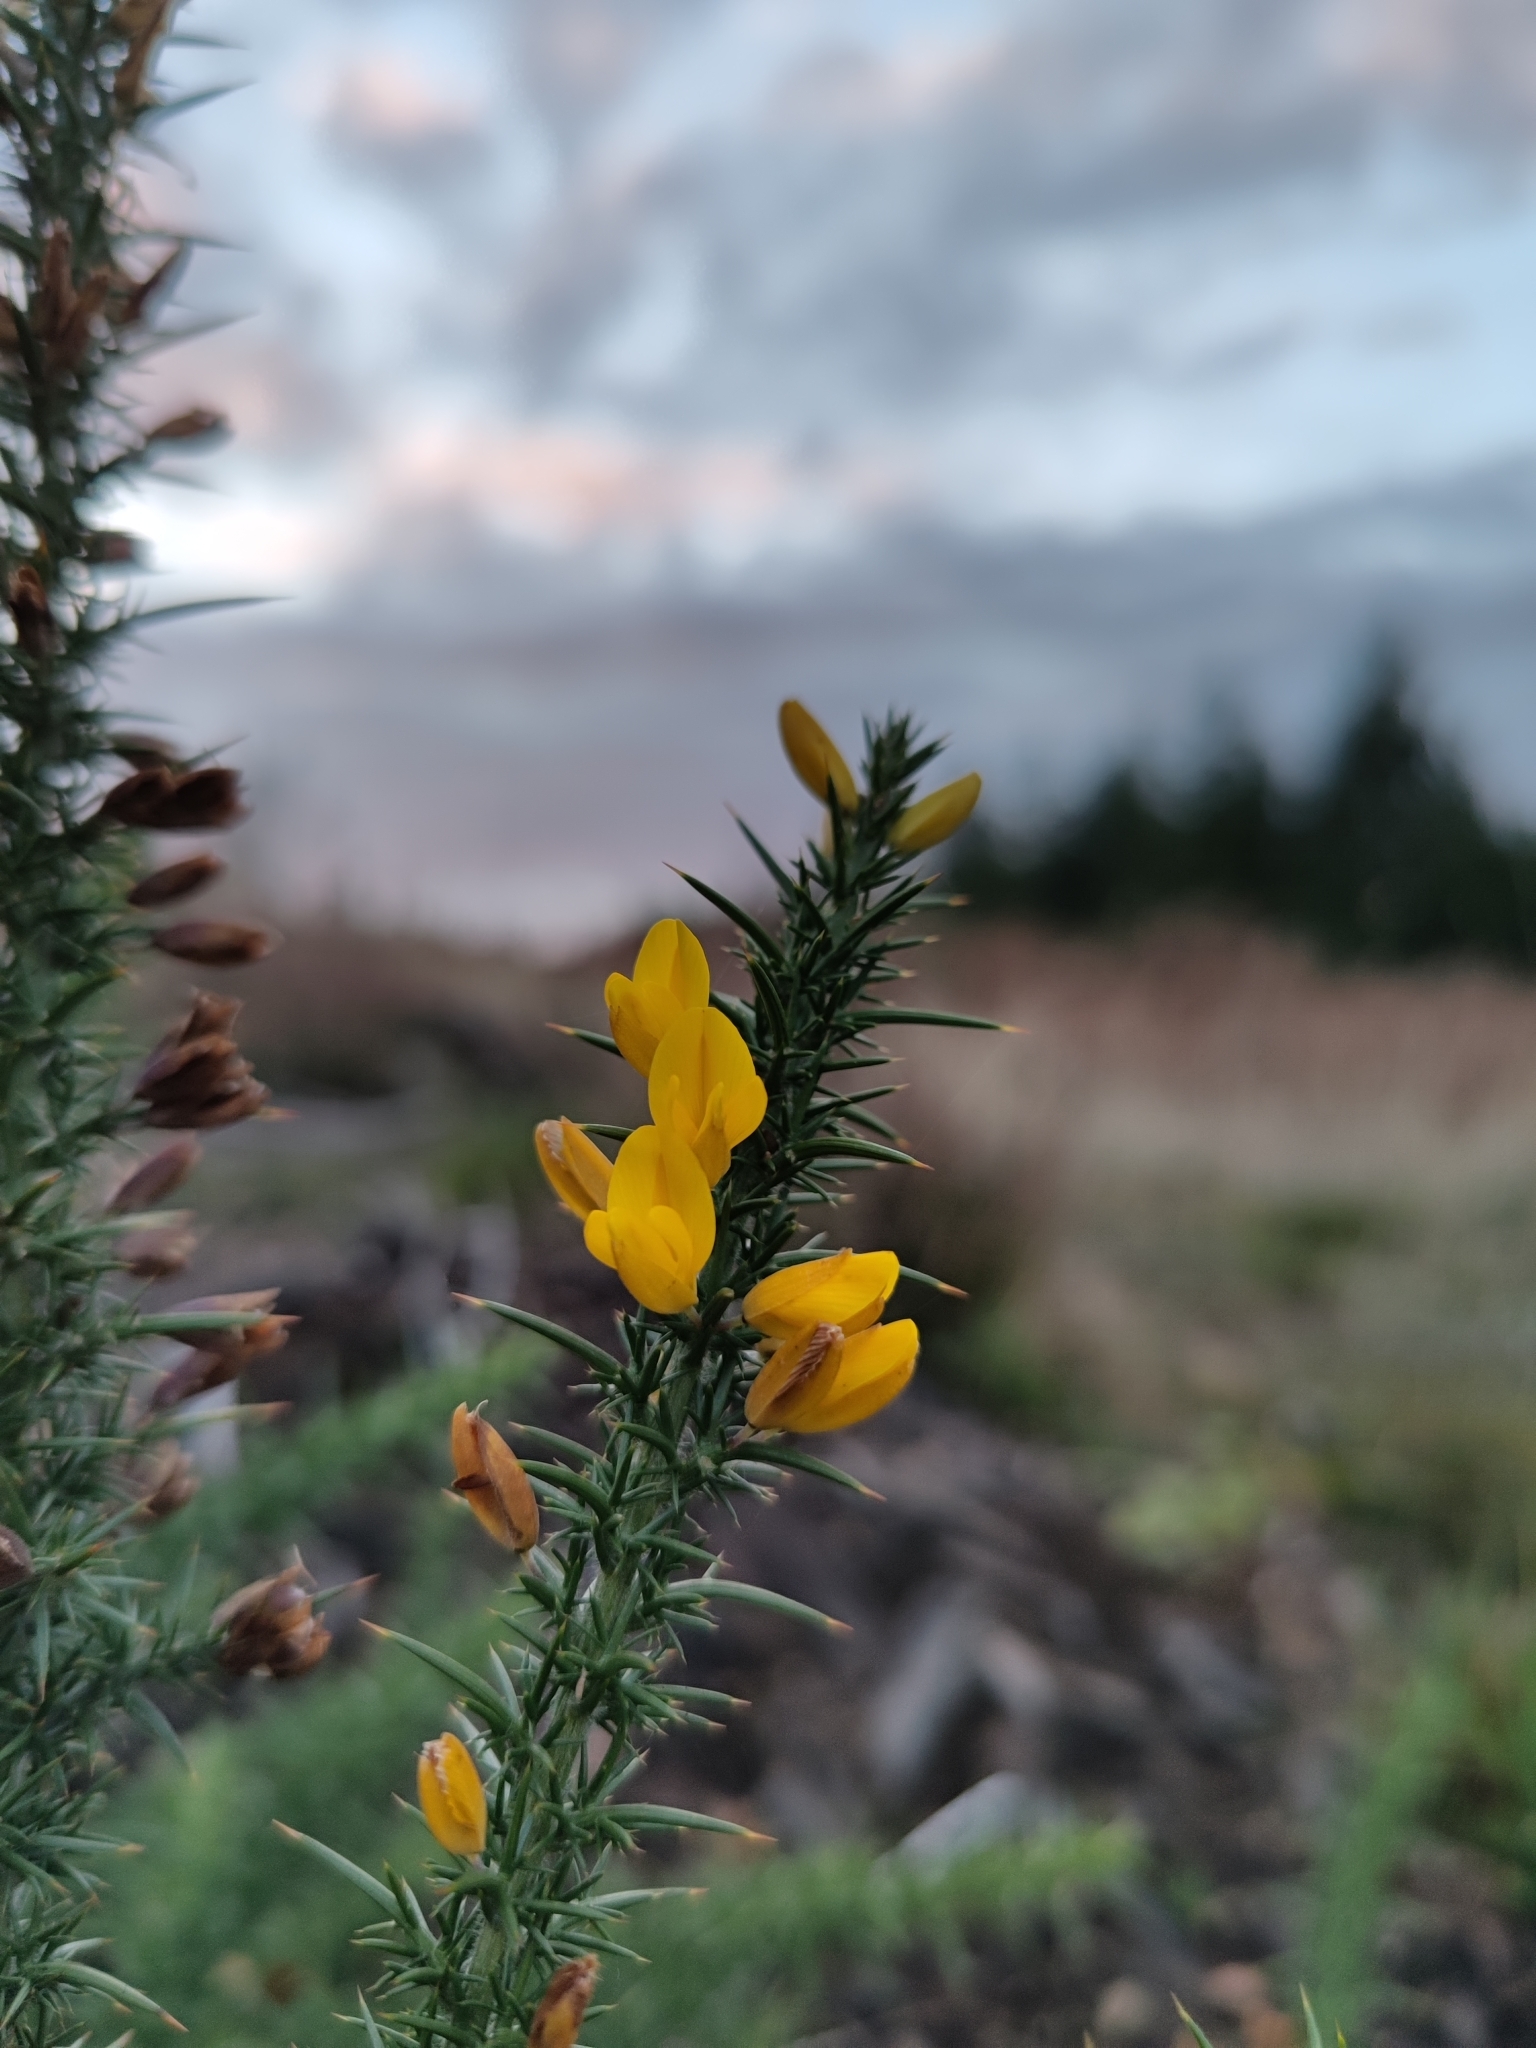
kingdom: Plantae
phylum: Tracheophyta
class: Magnoliopsida
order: Fabales
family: Fabaceae
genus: Ulex
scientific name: Ulex europaeus
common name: Common gorse
